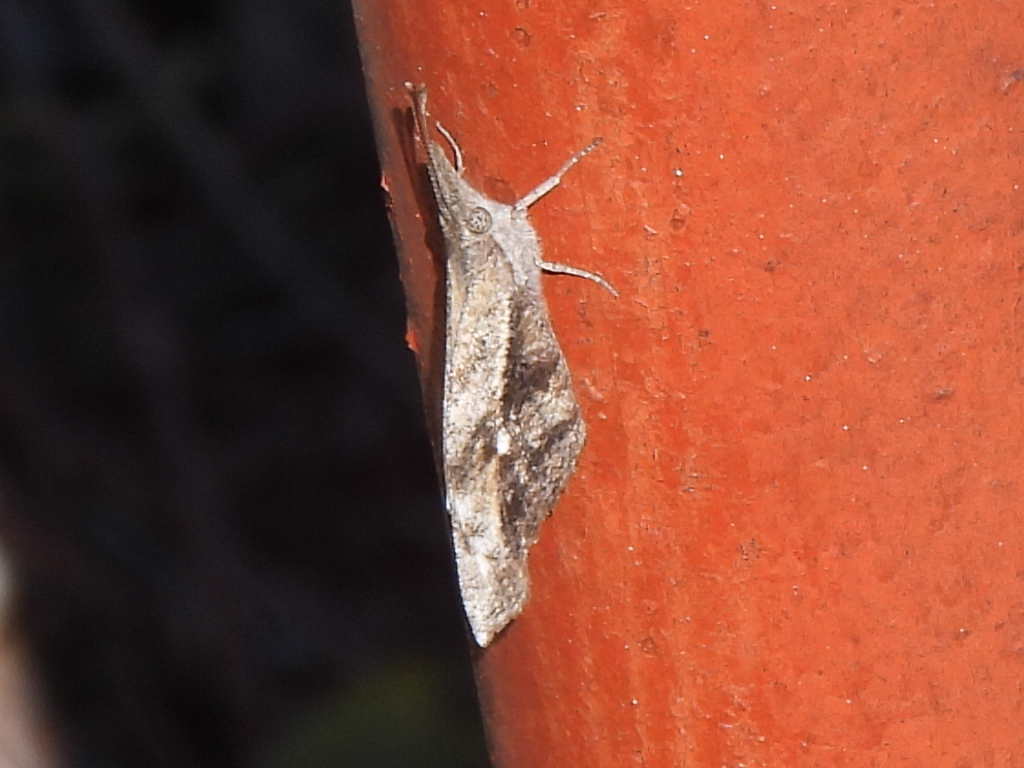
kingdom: Animalia
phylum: Arthropoda
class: Insecta
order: Lepidoptera
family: Nymphalidae
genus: Libytheana
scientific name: Libytheana carinenta
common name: American snout
